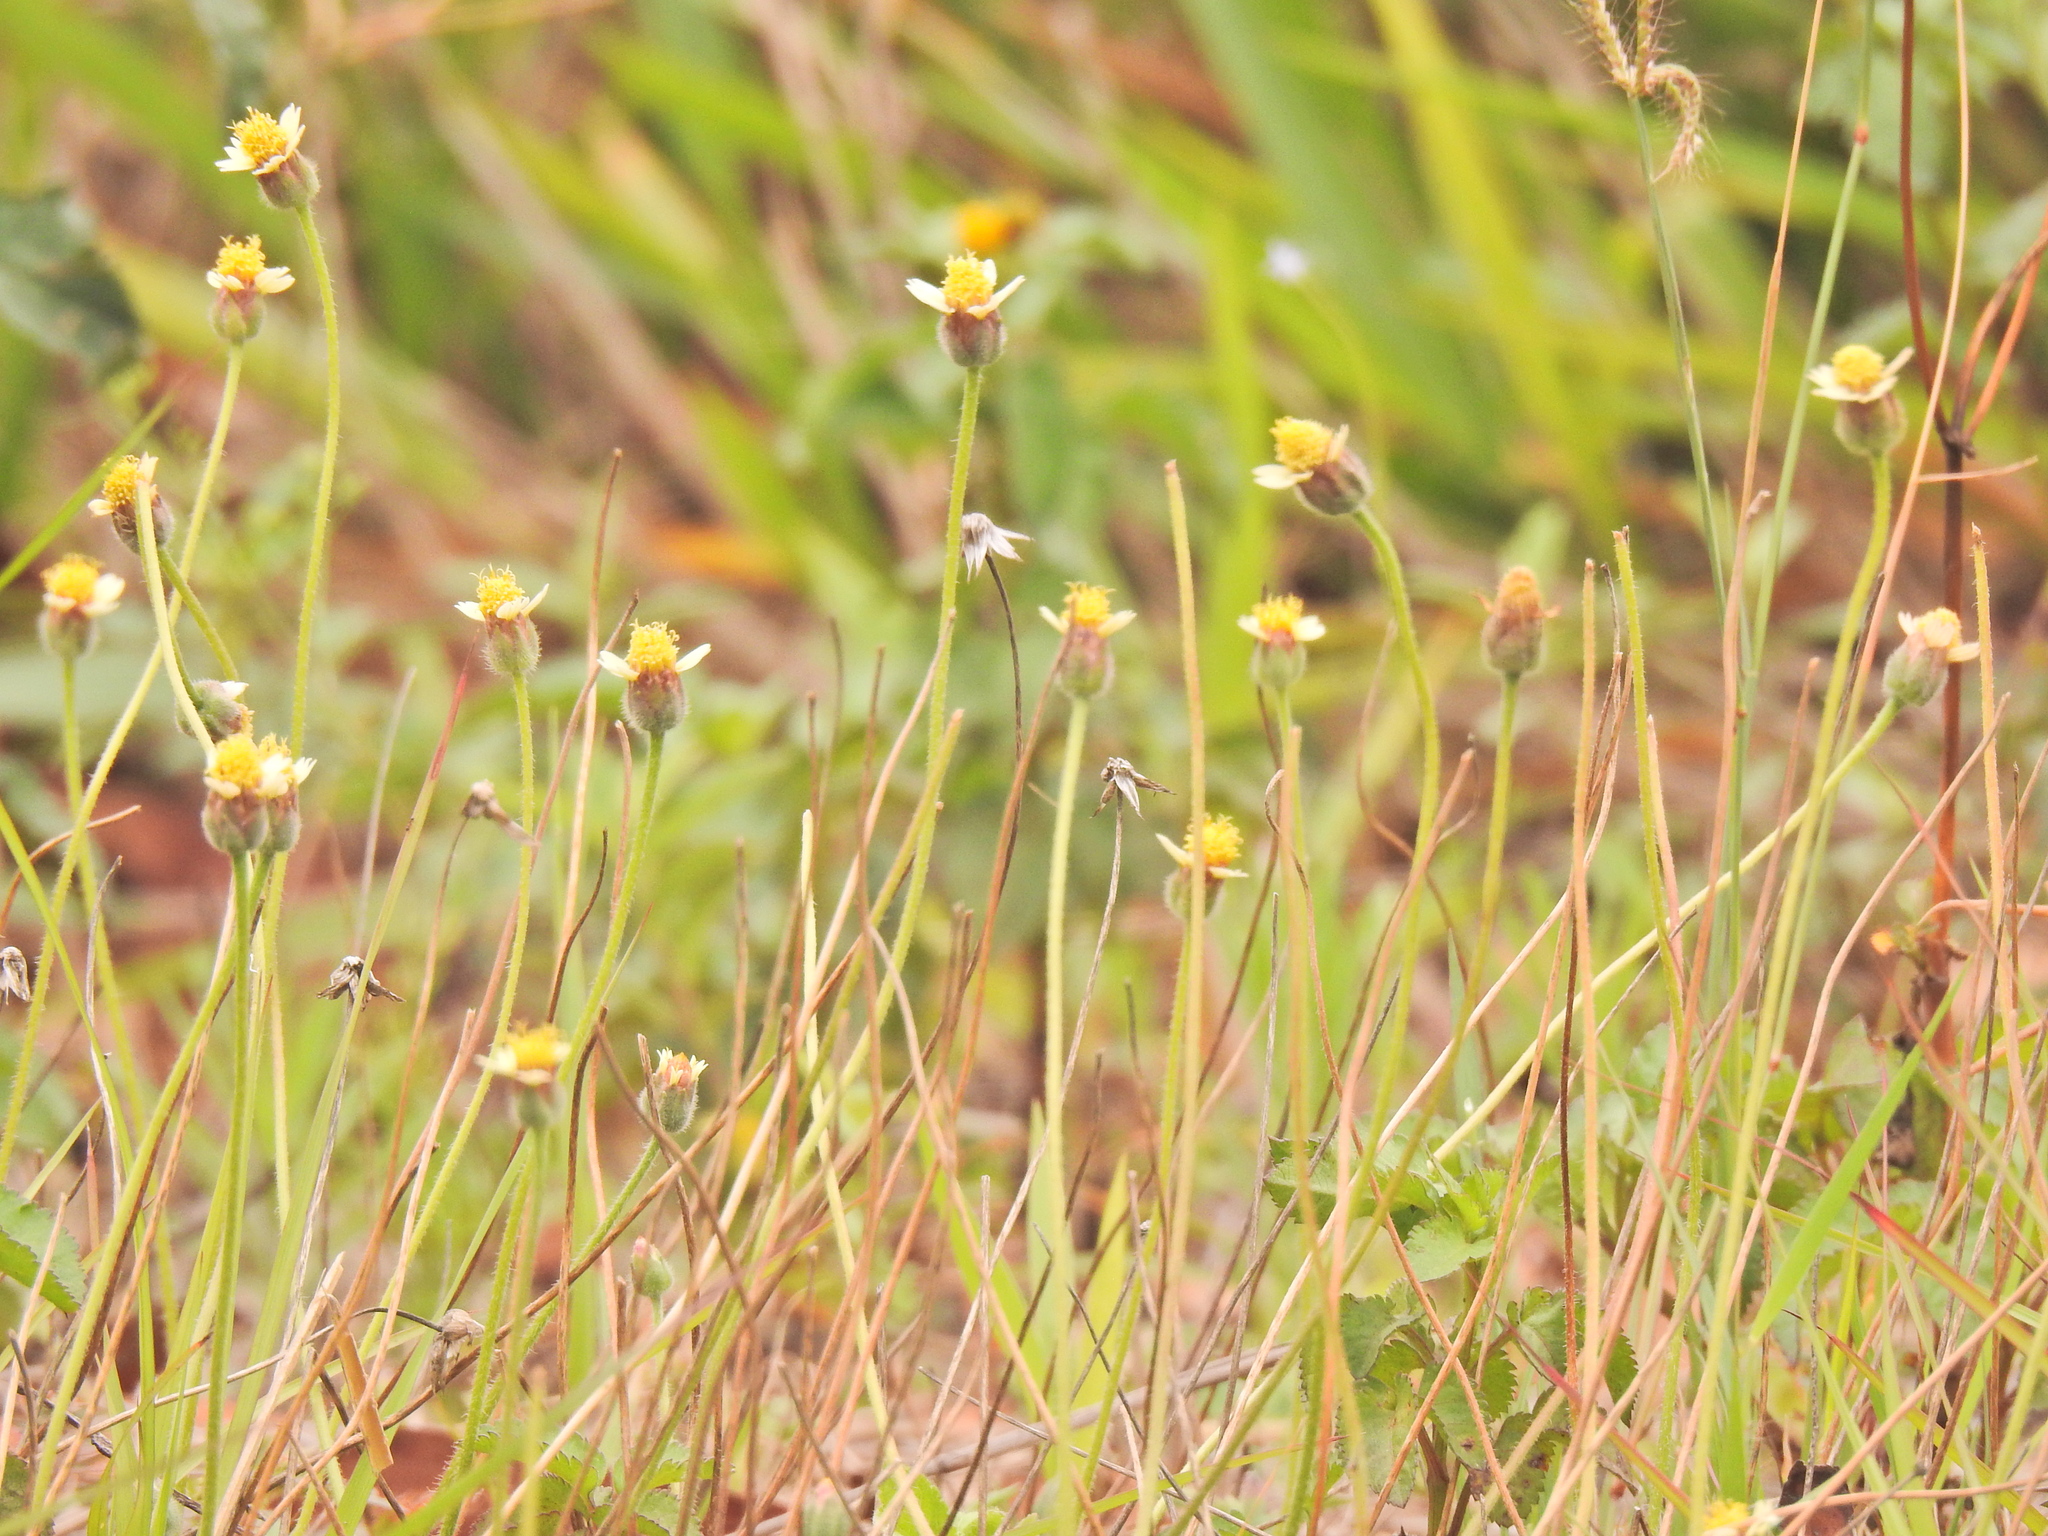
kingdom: Plantae
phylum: Tracheophyta
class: Magnoliopsida
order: Asterales
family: Asteraceae
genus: Tridax
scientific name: Tridax procumbens
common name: Coatbuttons
